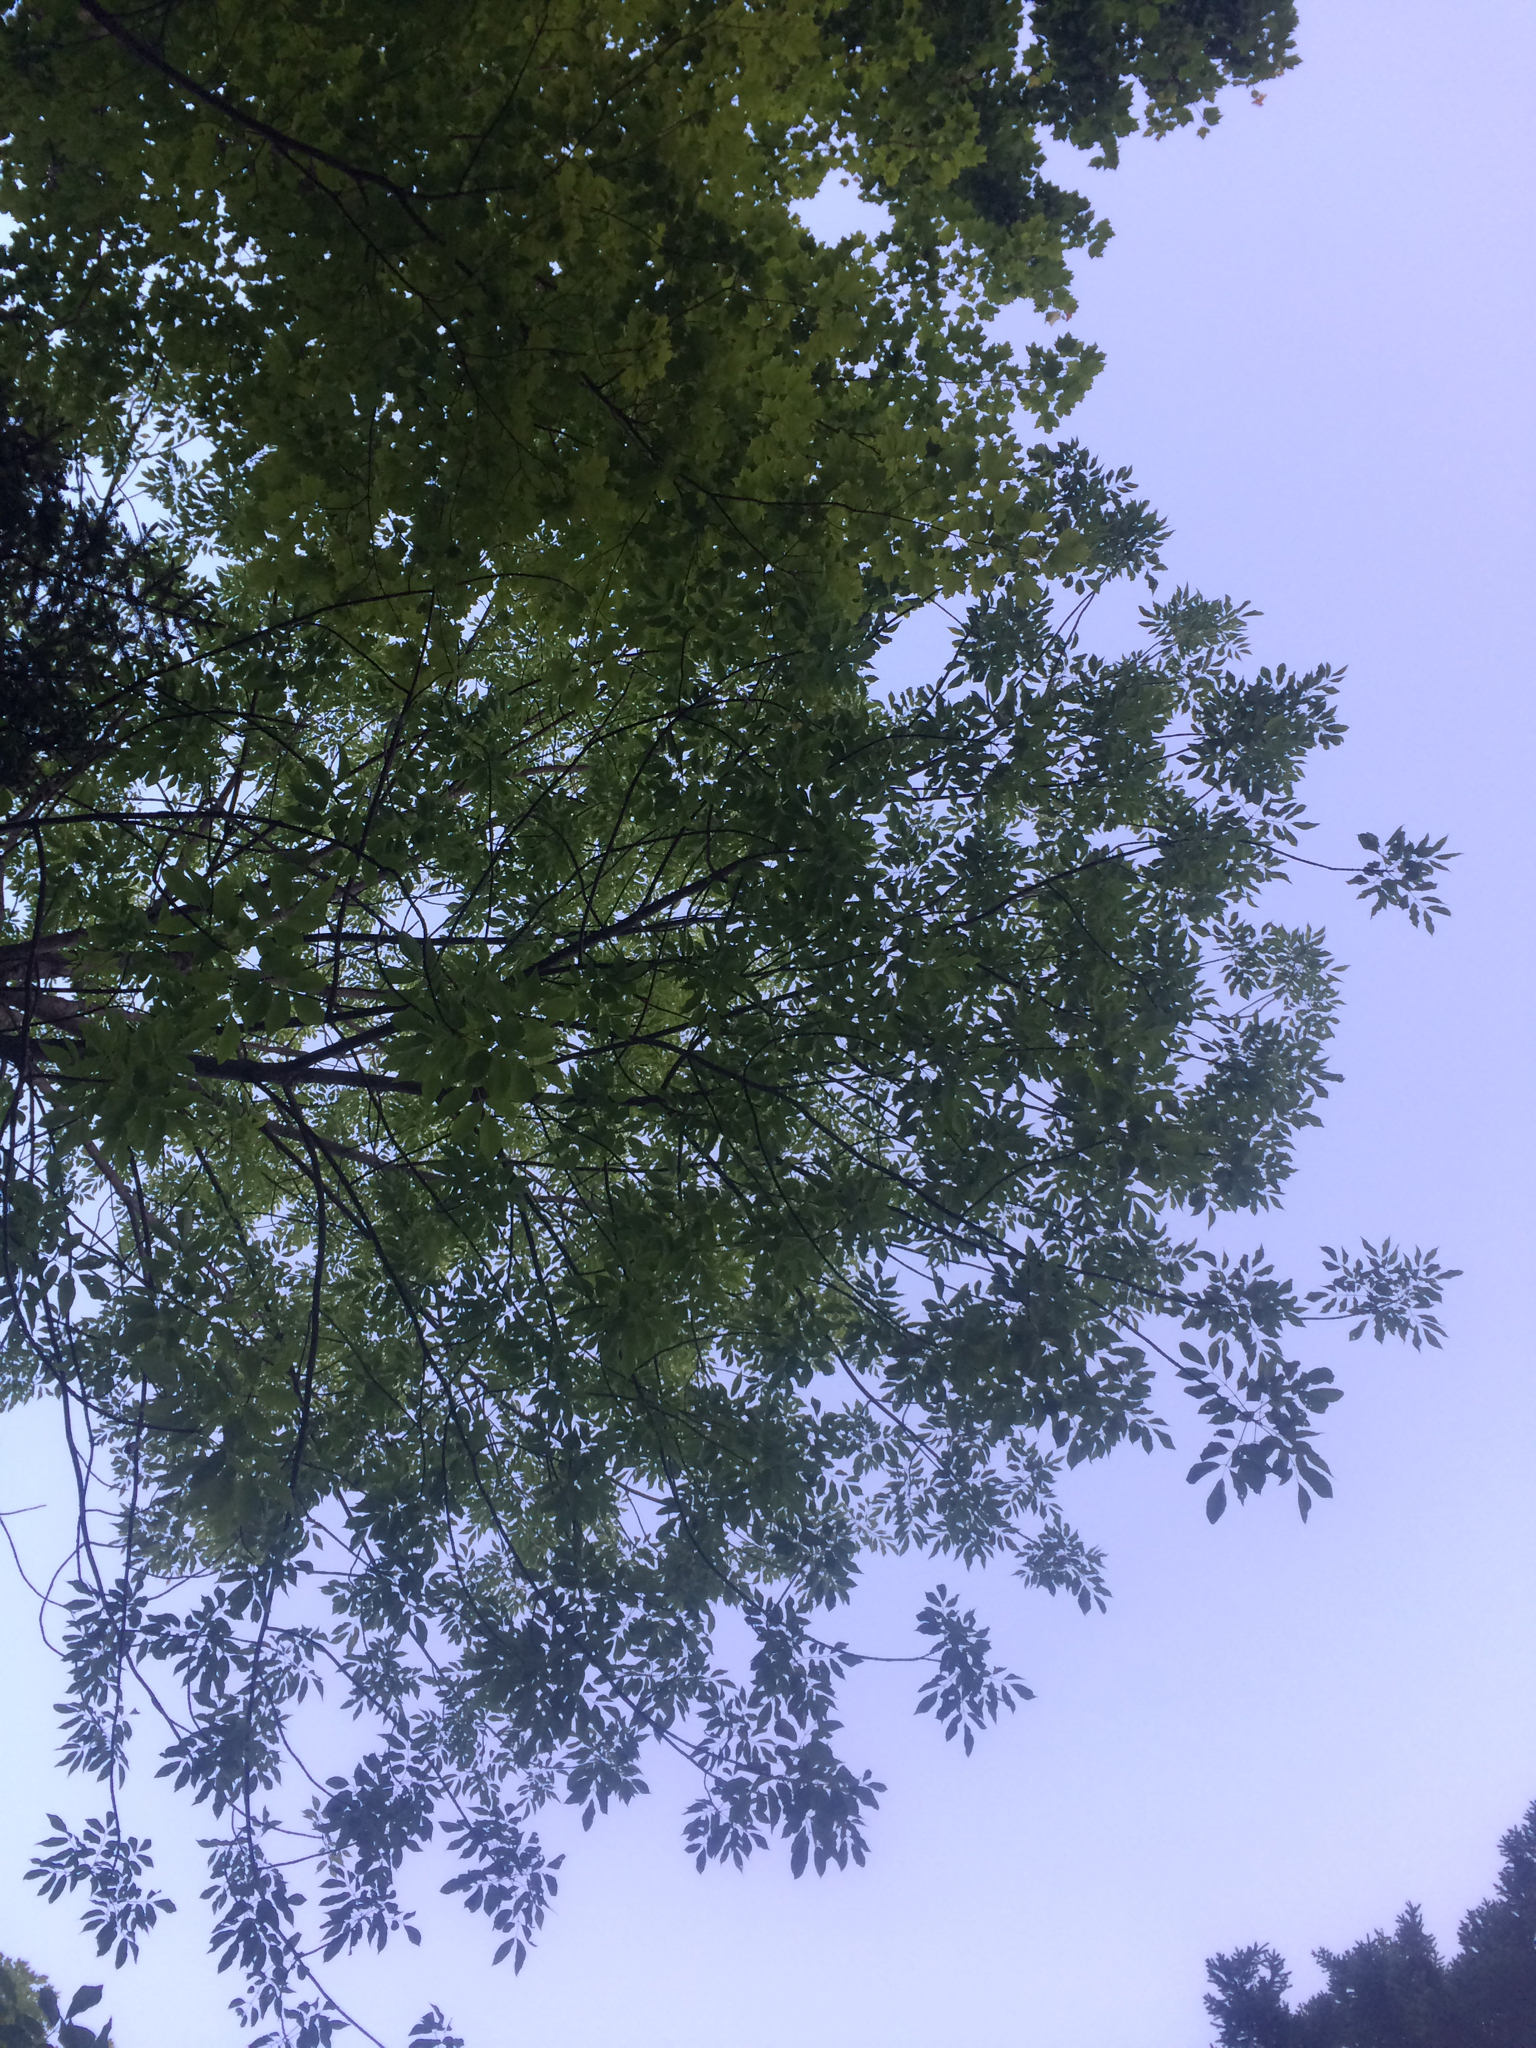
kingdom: Plantae
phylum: Tracheophyta
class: Magnoliopsida
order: Lamiales
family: Oleaceae
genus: Fraxinus
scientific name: Fraxinus americana
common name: White ash
